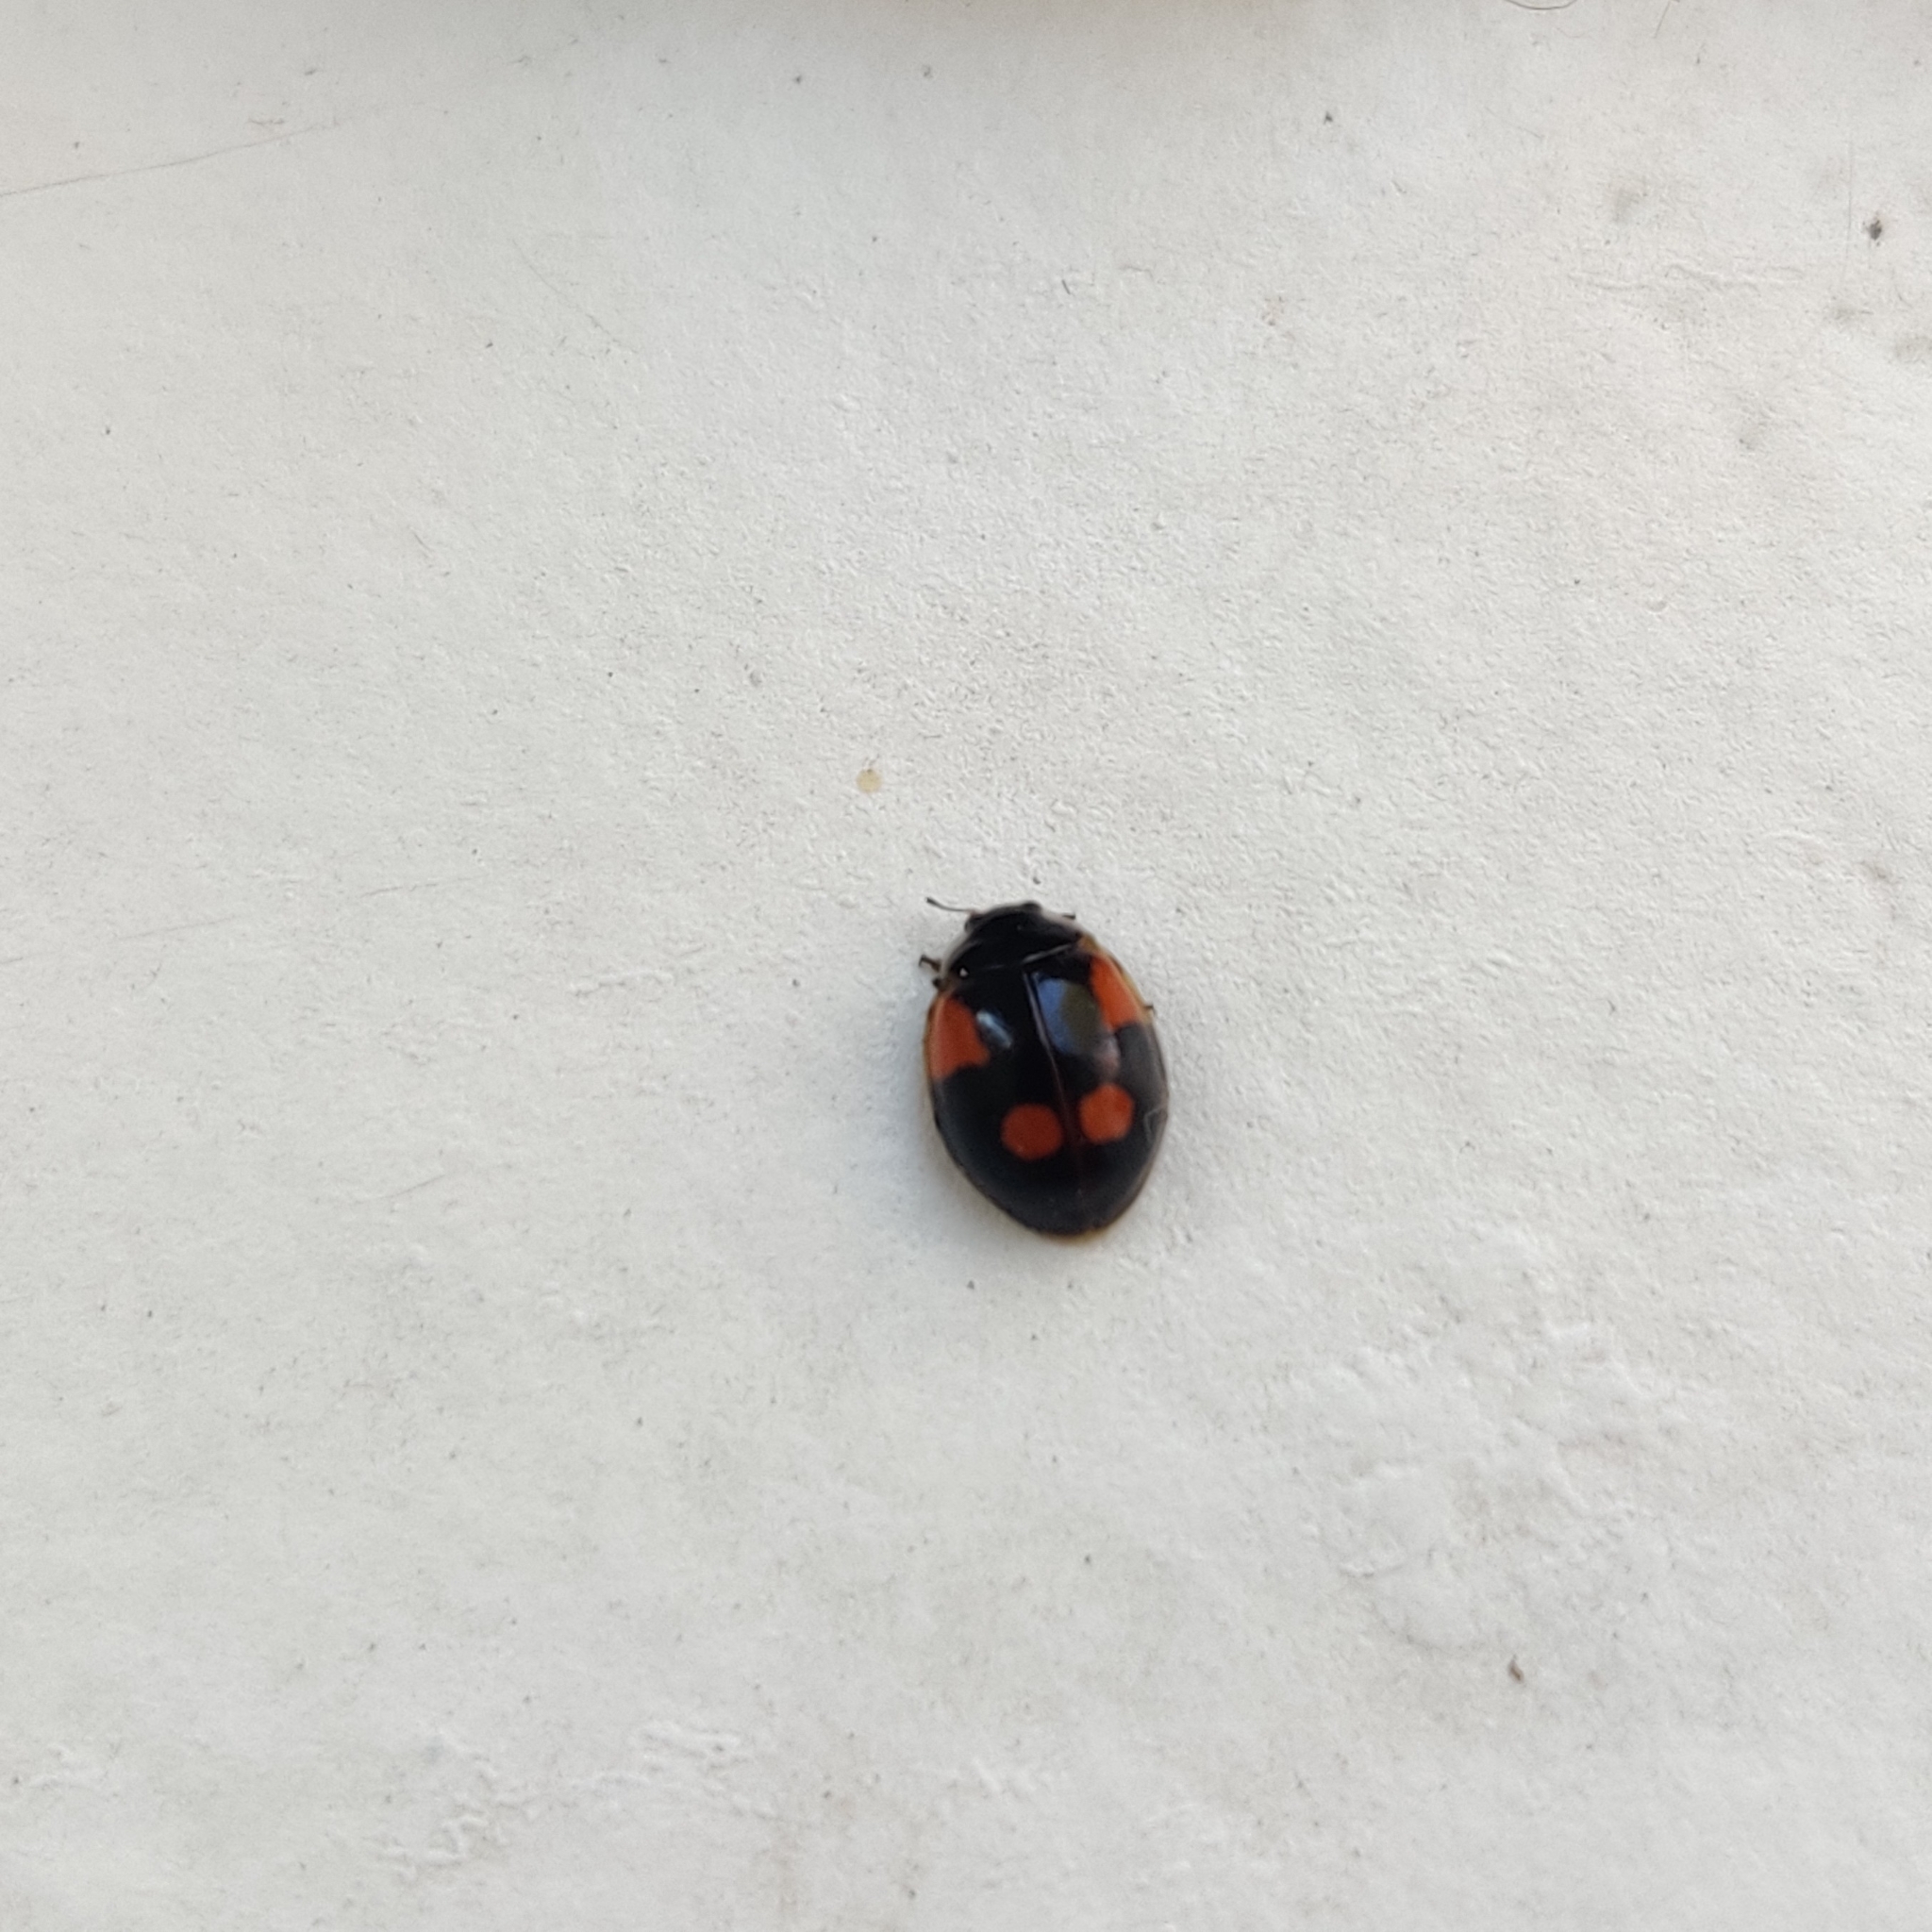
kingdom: Animalia
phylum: Arthropoda
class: Insecta
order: Coleoptera
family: Coccinellidae
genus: Adalia
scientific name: Adalia bipunctata
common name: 2-spot ladybird
